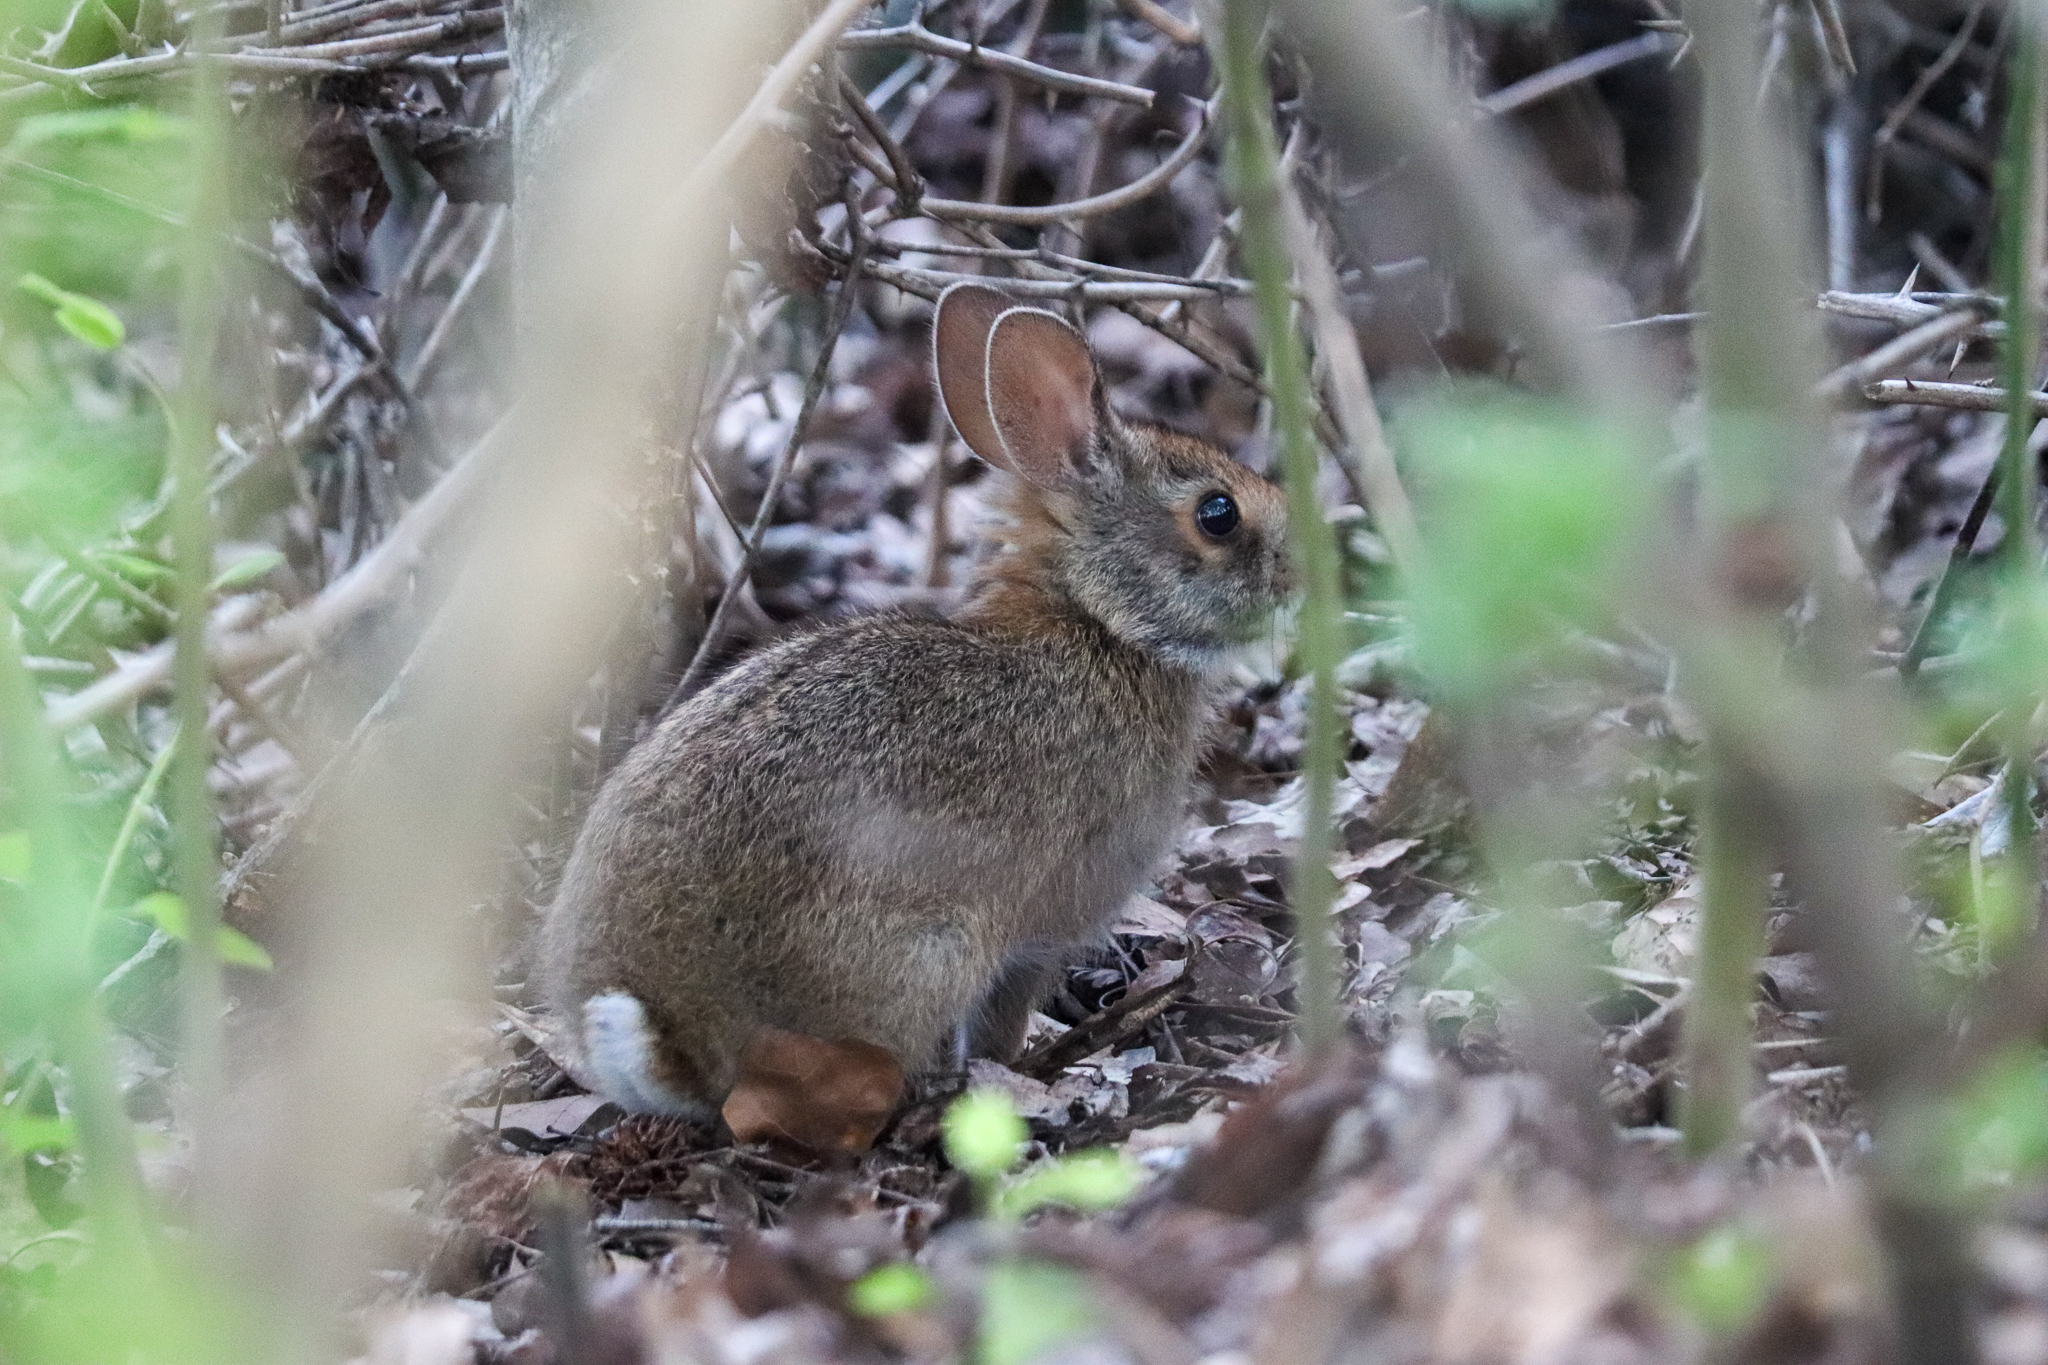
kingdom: Animalia
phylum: Chordata
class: Mammalia
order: Lagomorpha
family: Leporidae
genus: Sylvilagus
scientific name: Sylvilagus floridanus
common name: Eastern cottontail
